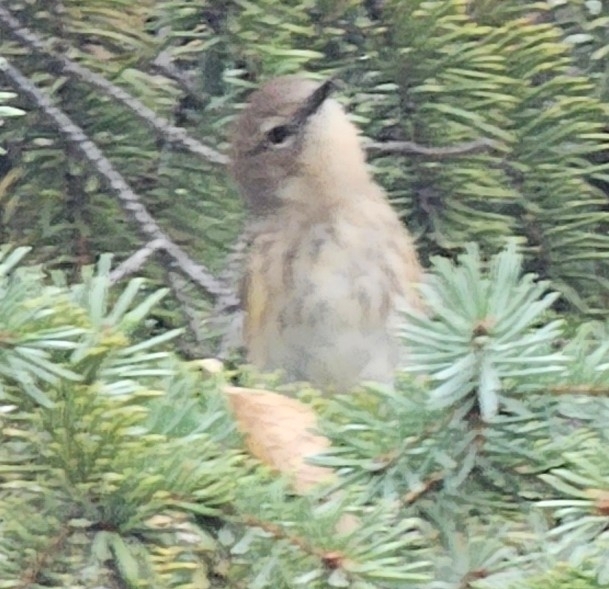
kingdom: Animalia
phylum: Chordata
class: Aves
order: Passeriformes
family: Parulidae
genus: Setophaga
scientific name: Setophaga coronata
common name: Myrtle warbler
